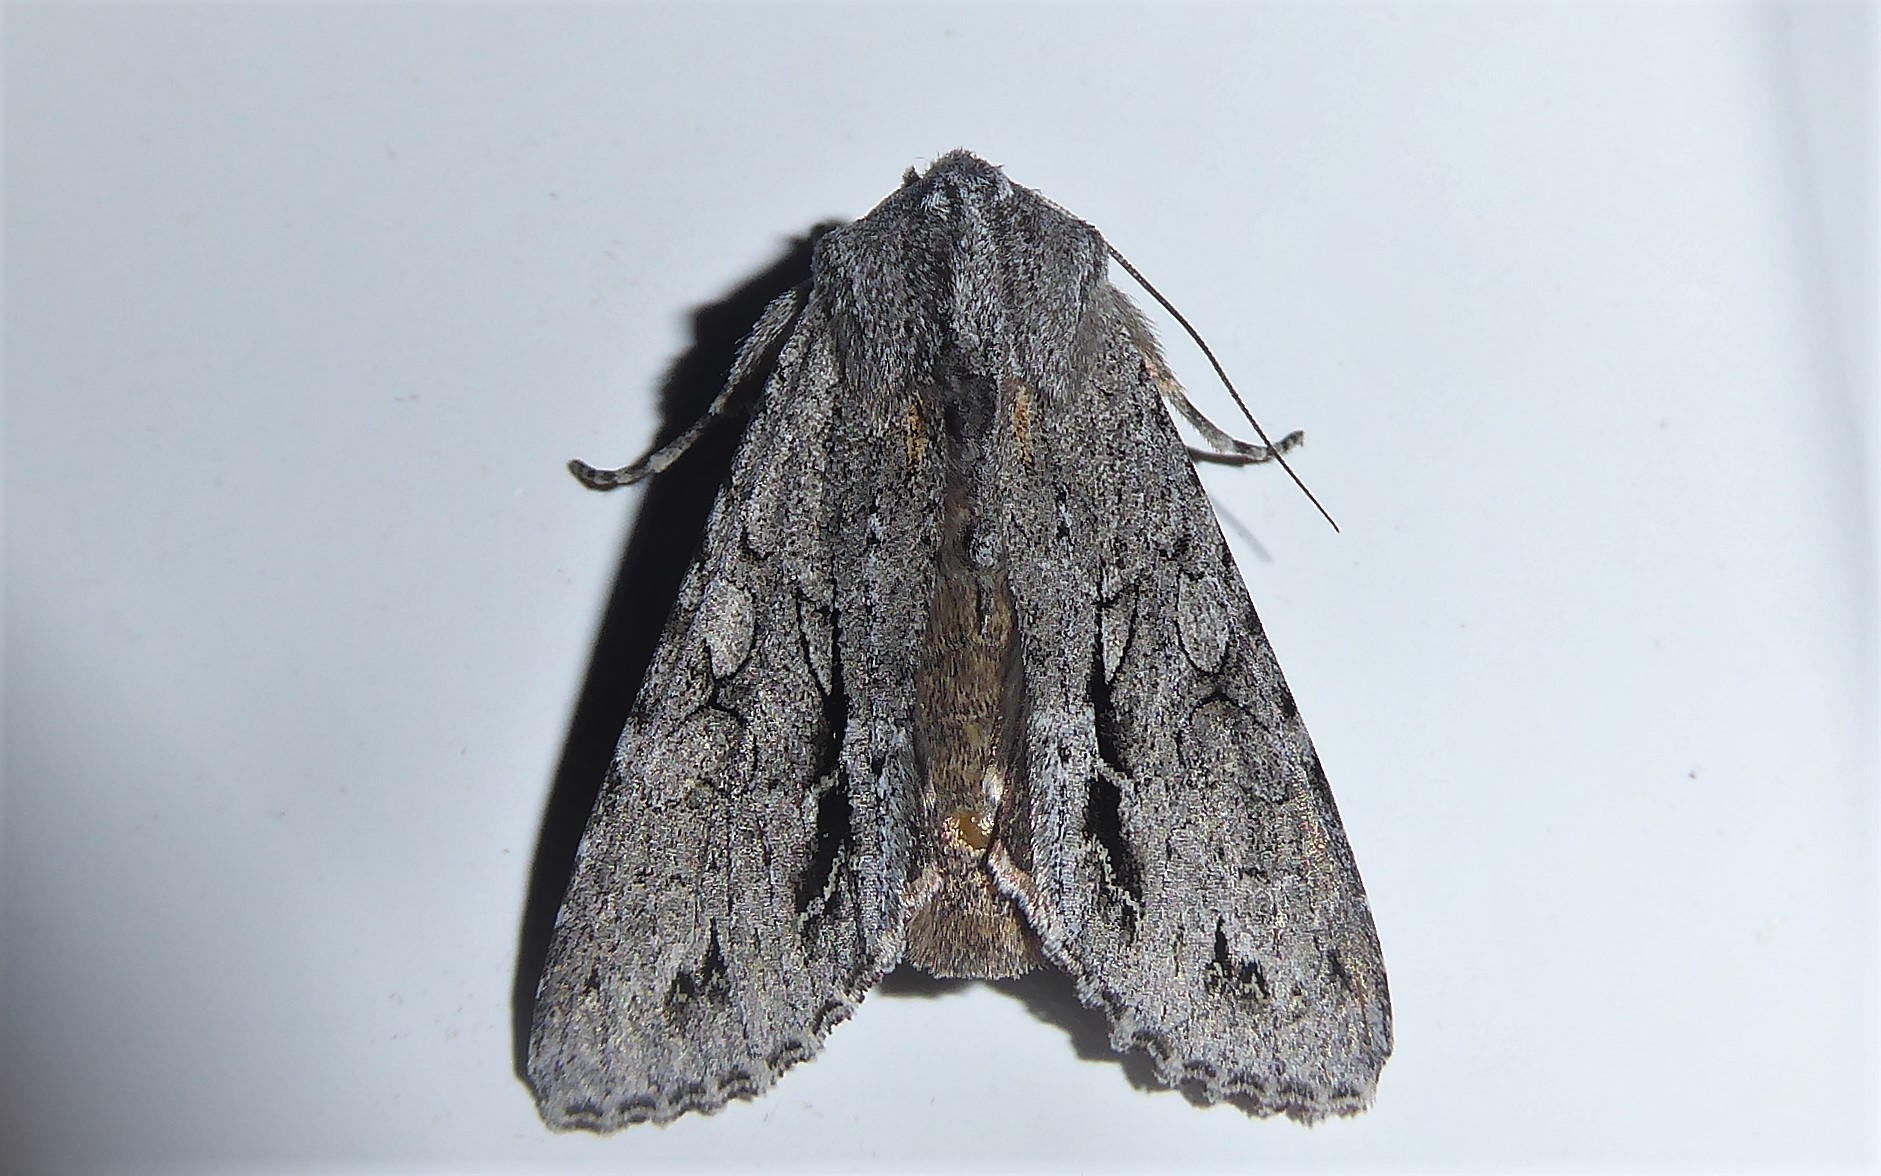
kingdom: Animalia
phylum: Arthropoda
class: Insecta
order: Lepidoptera
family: Noctuidae
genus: Ichneutica
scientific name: Ichneutica
